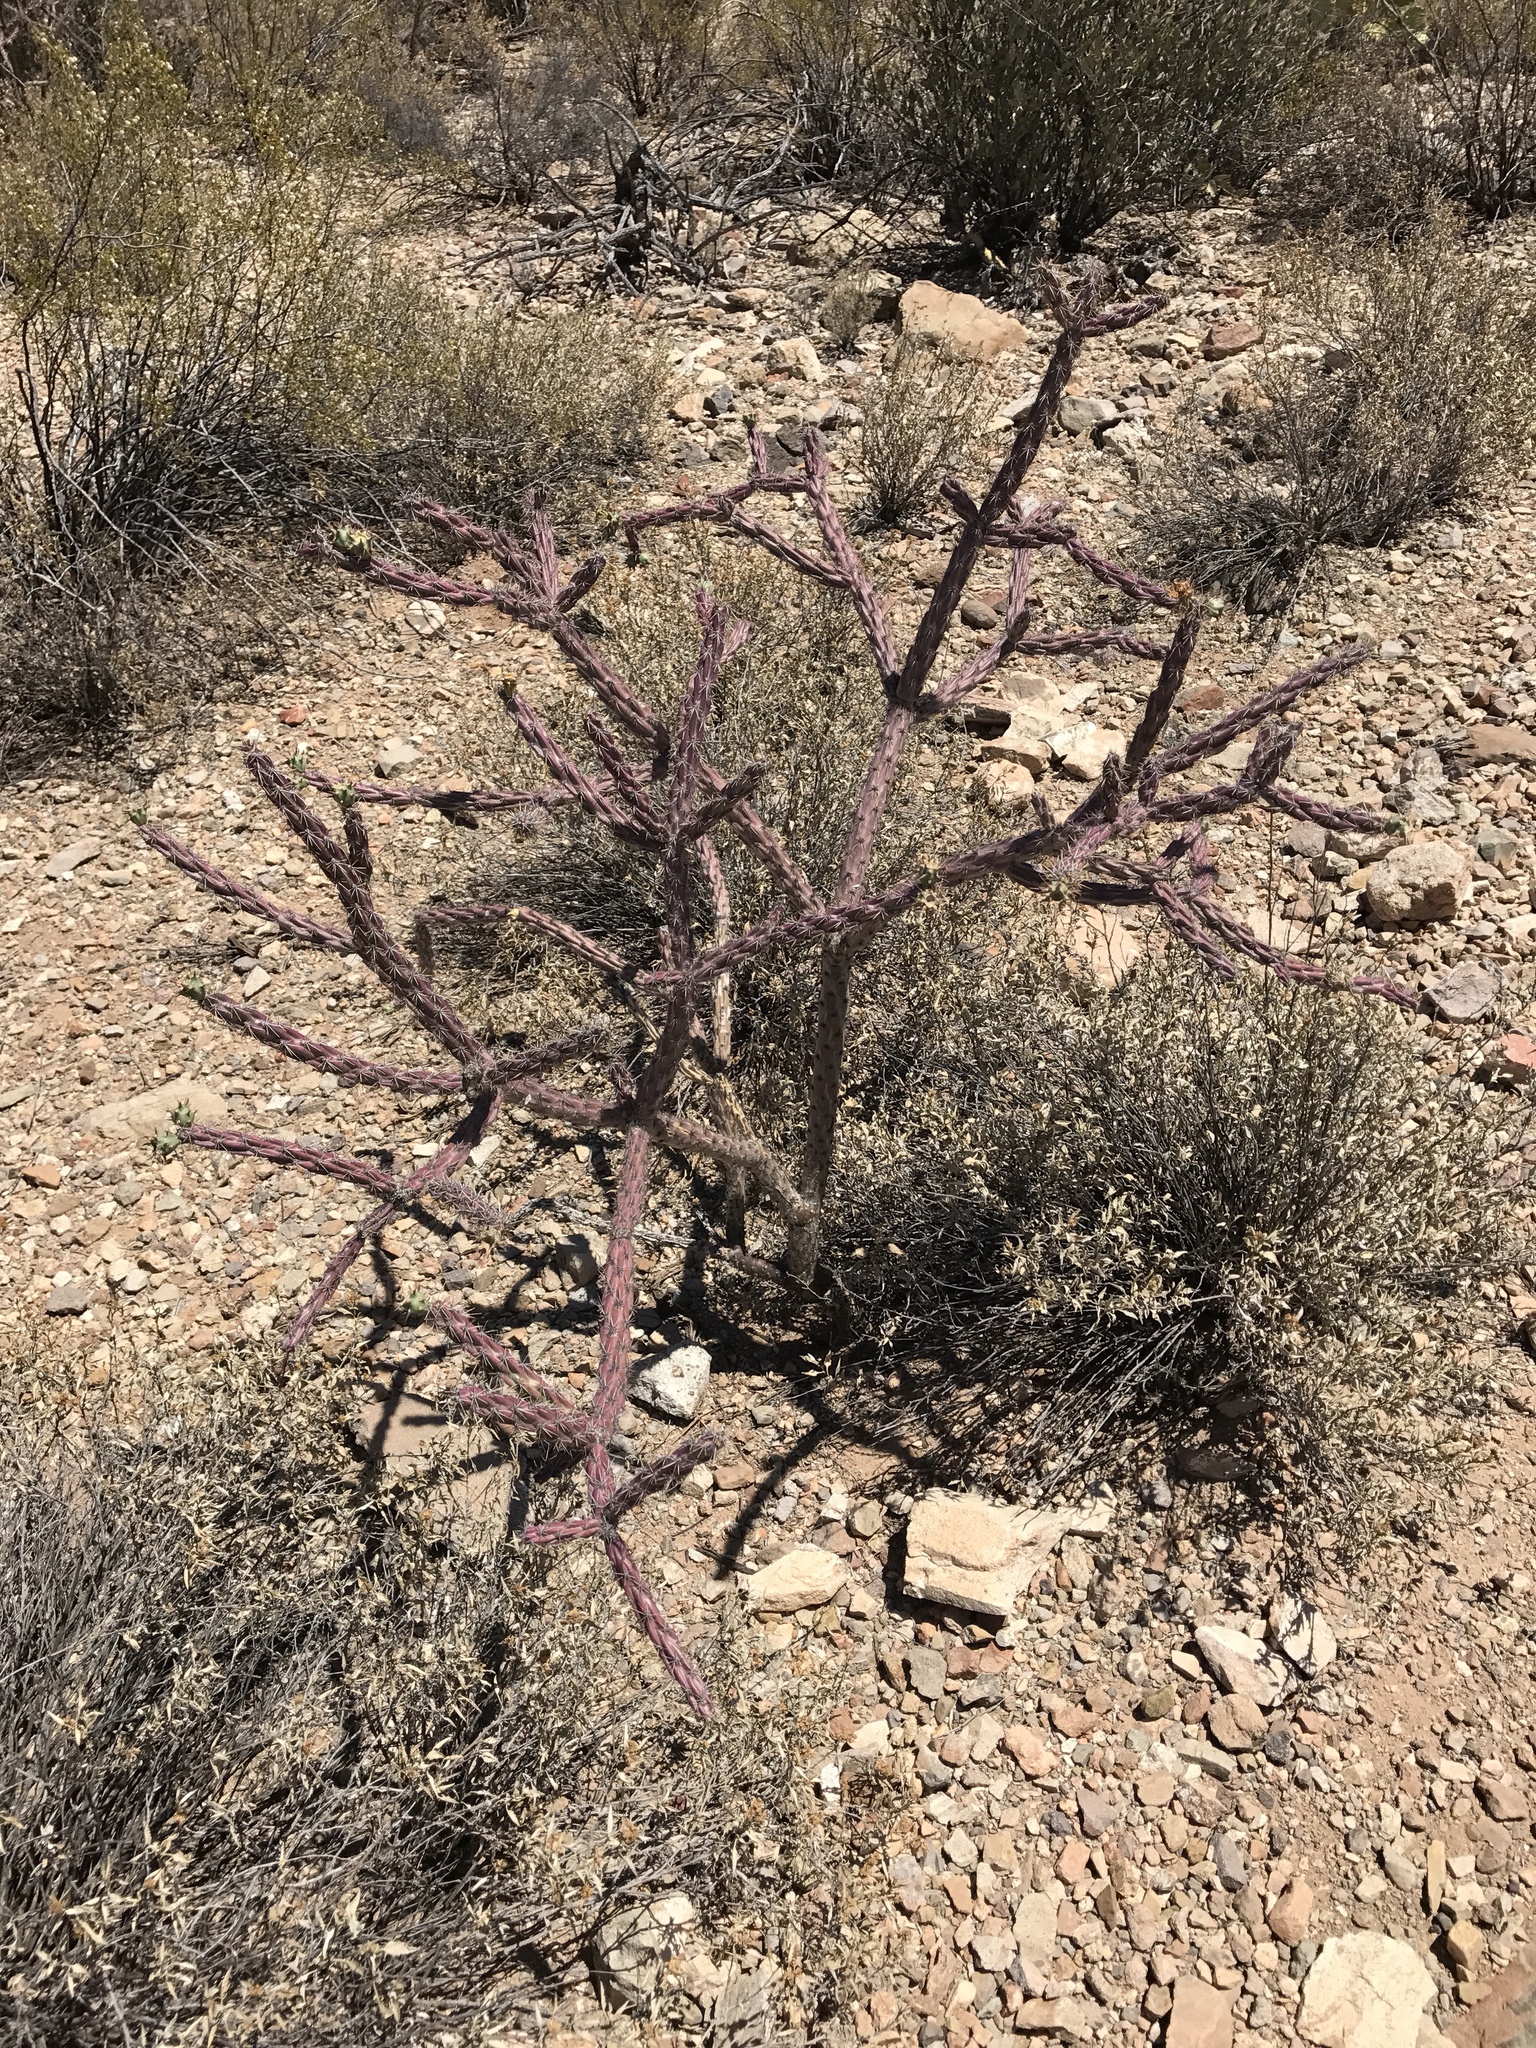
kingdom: Plantae
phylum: Tracheophyta
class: Magnoliopsida
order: Caryophyllales
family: Cactaceae
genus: Cylindropuntia
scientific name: Cylindropuntia thurberi
